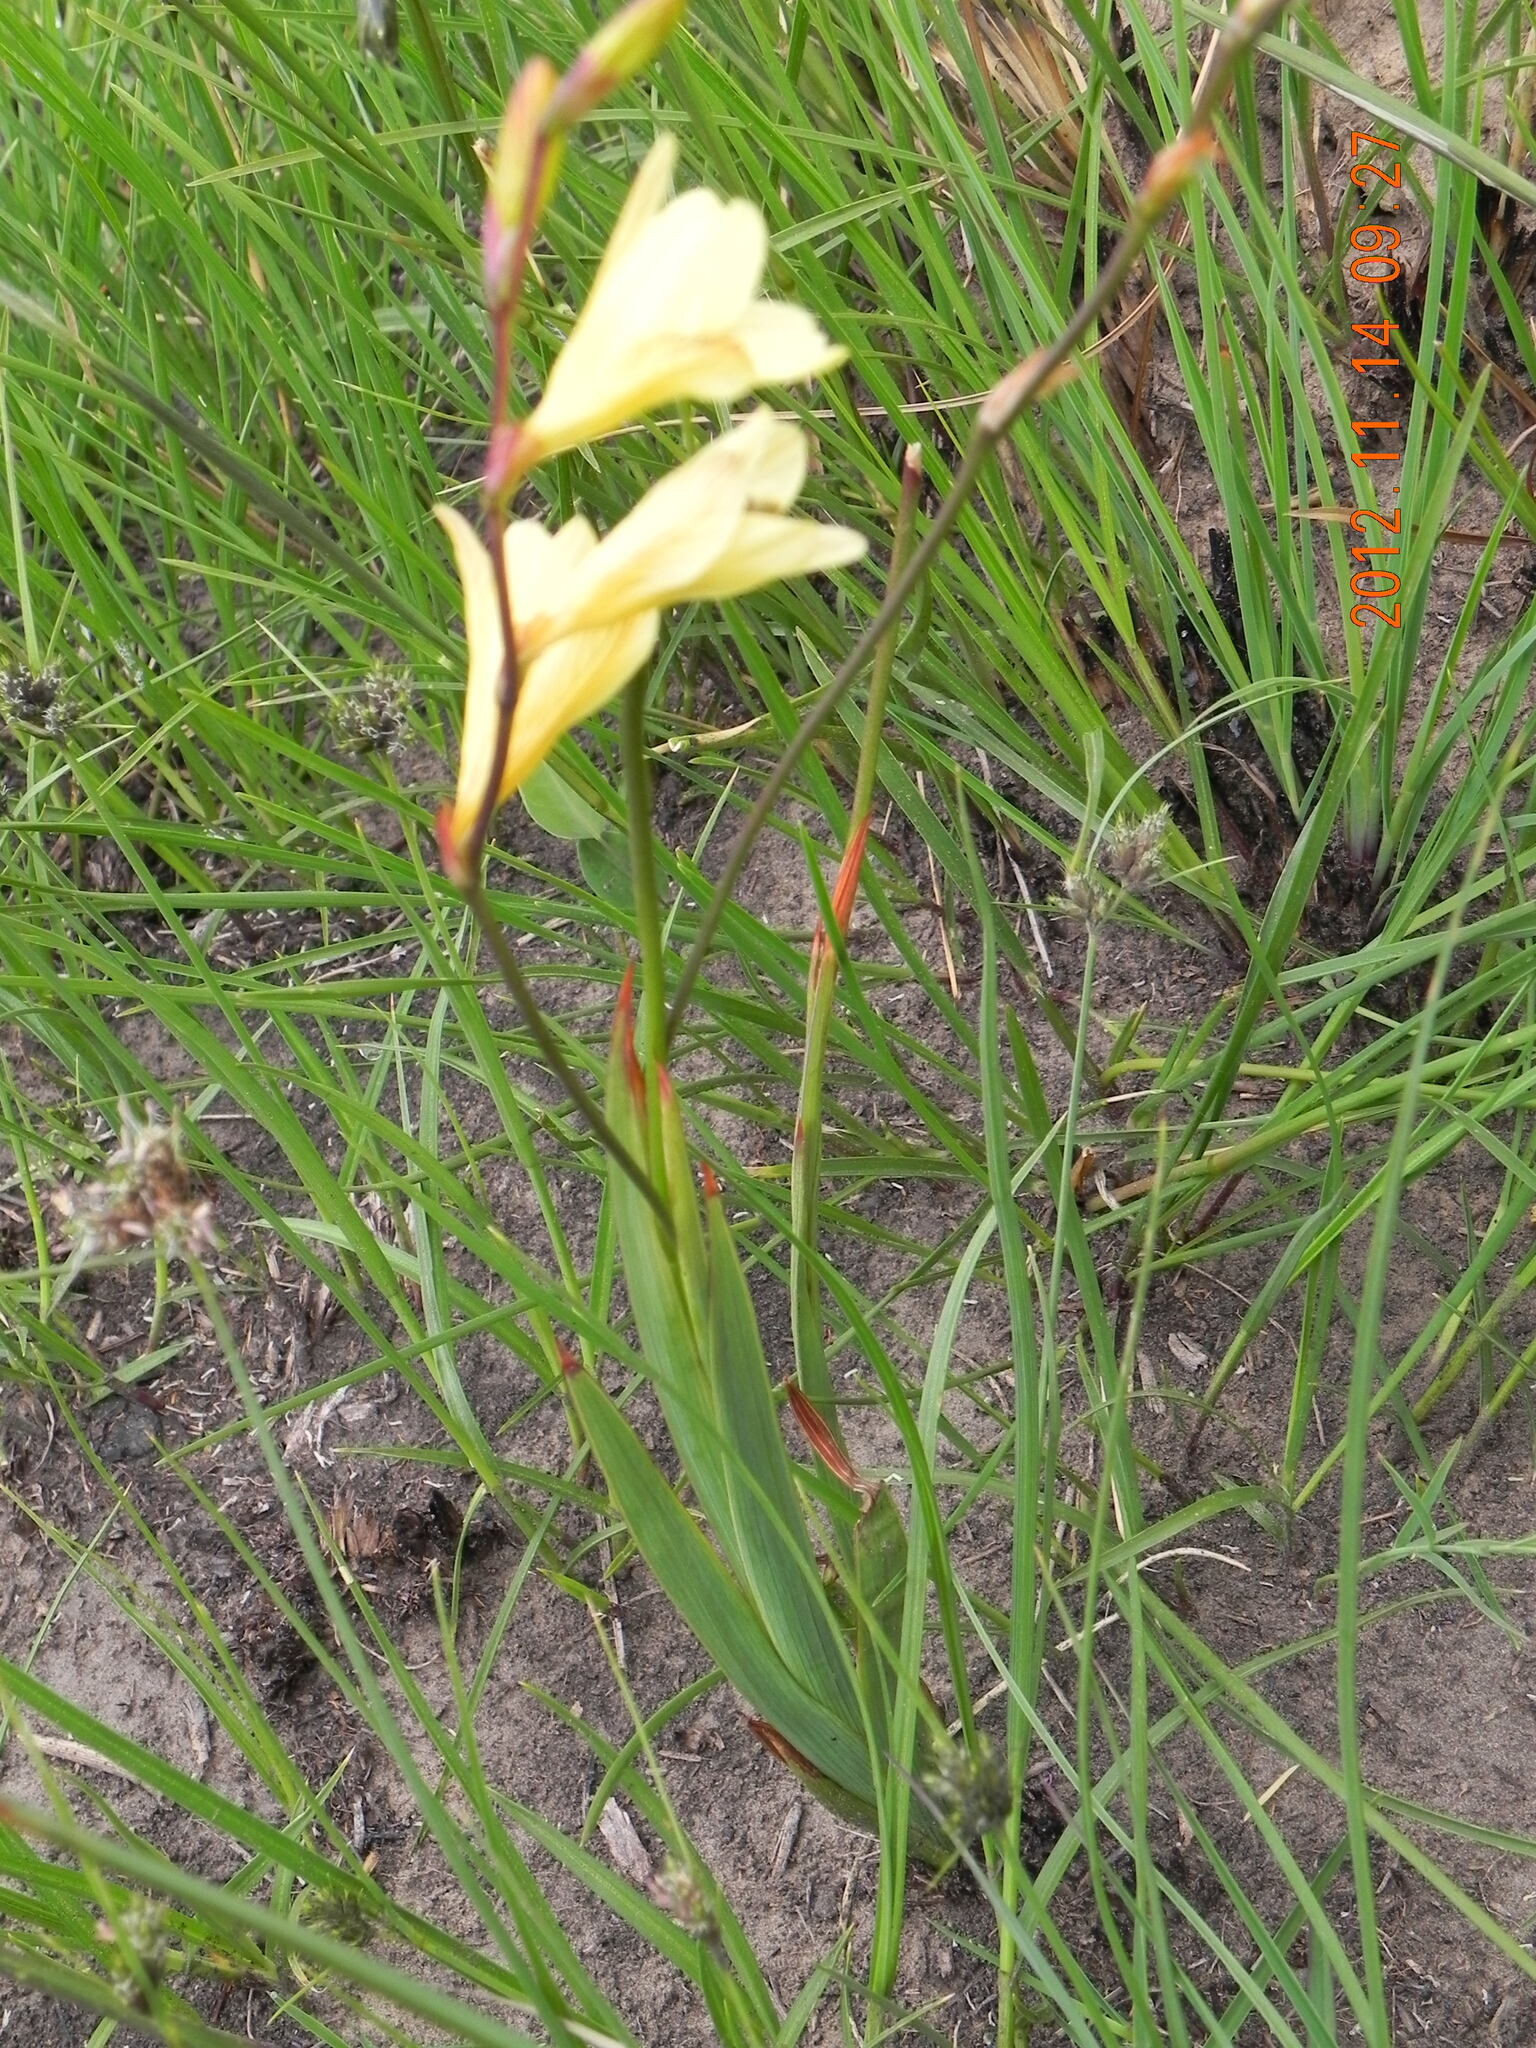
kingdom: Plantae
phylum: Tracheophyta
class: Liliopsida
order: Asparagales
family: Iridaceae
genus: Tritonia
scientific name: Tritonia gladiolaris
